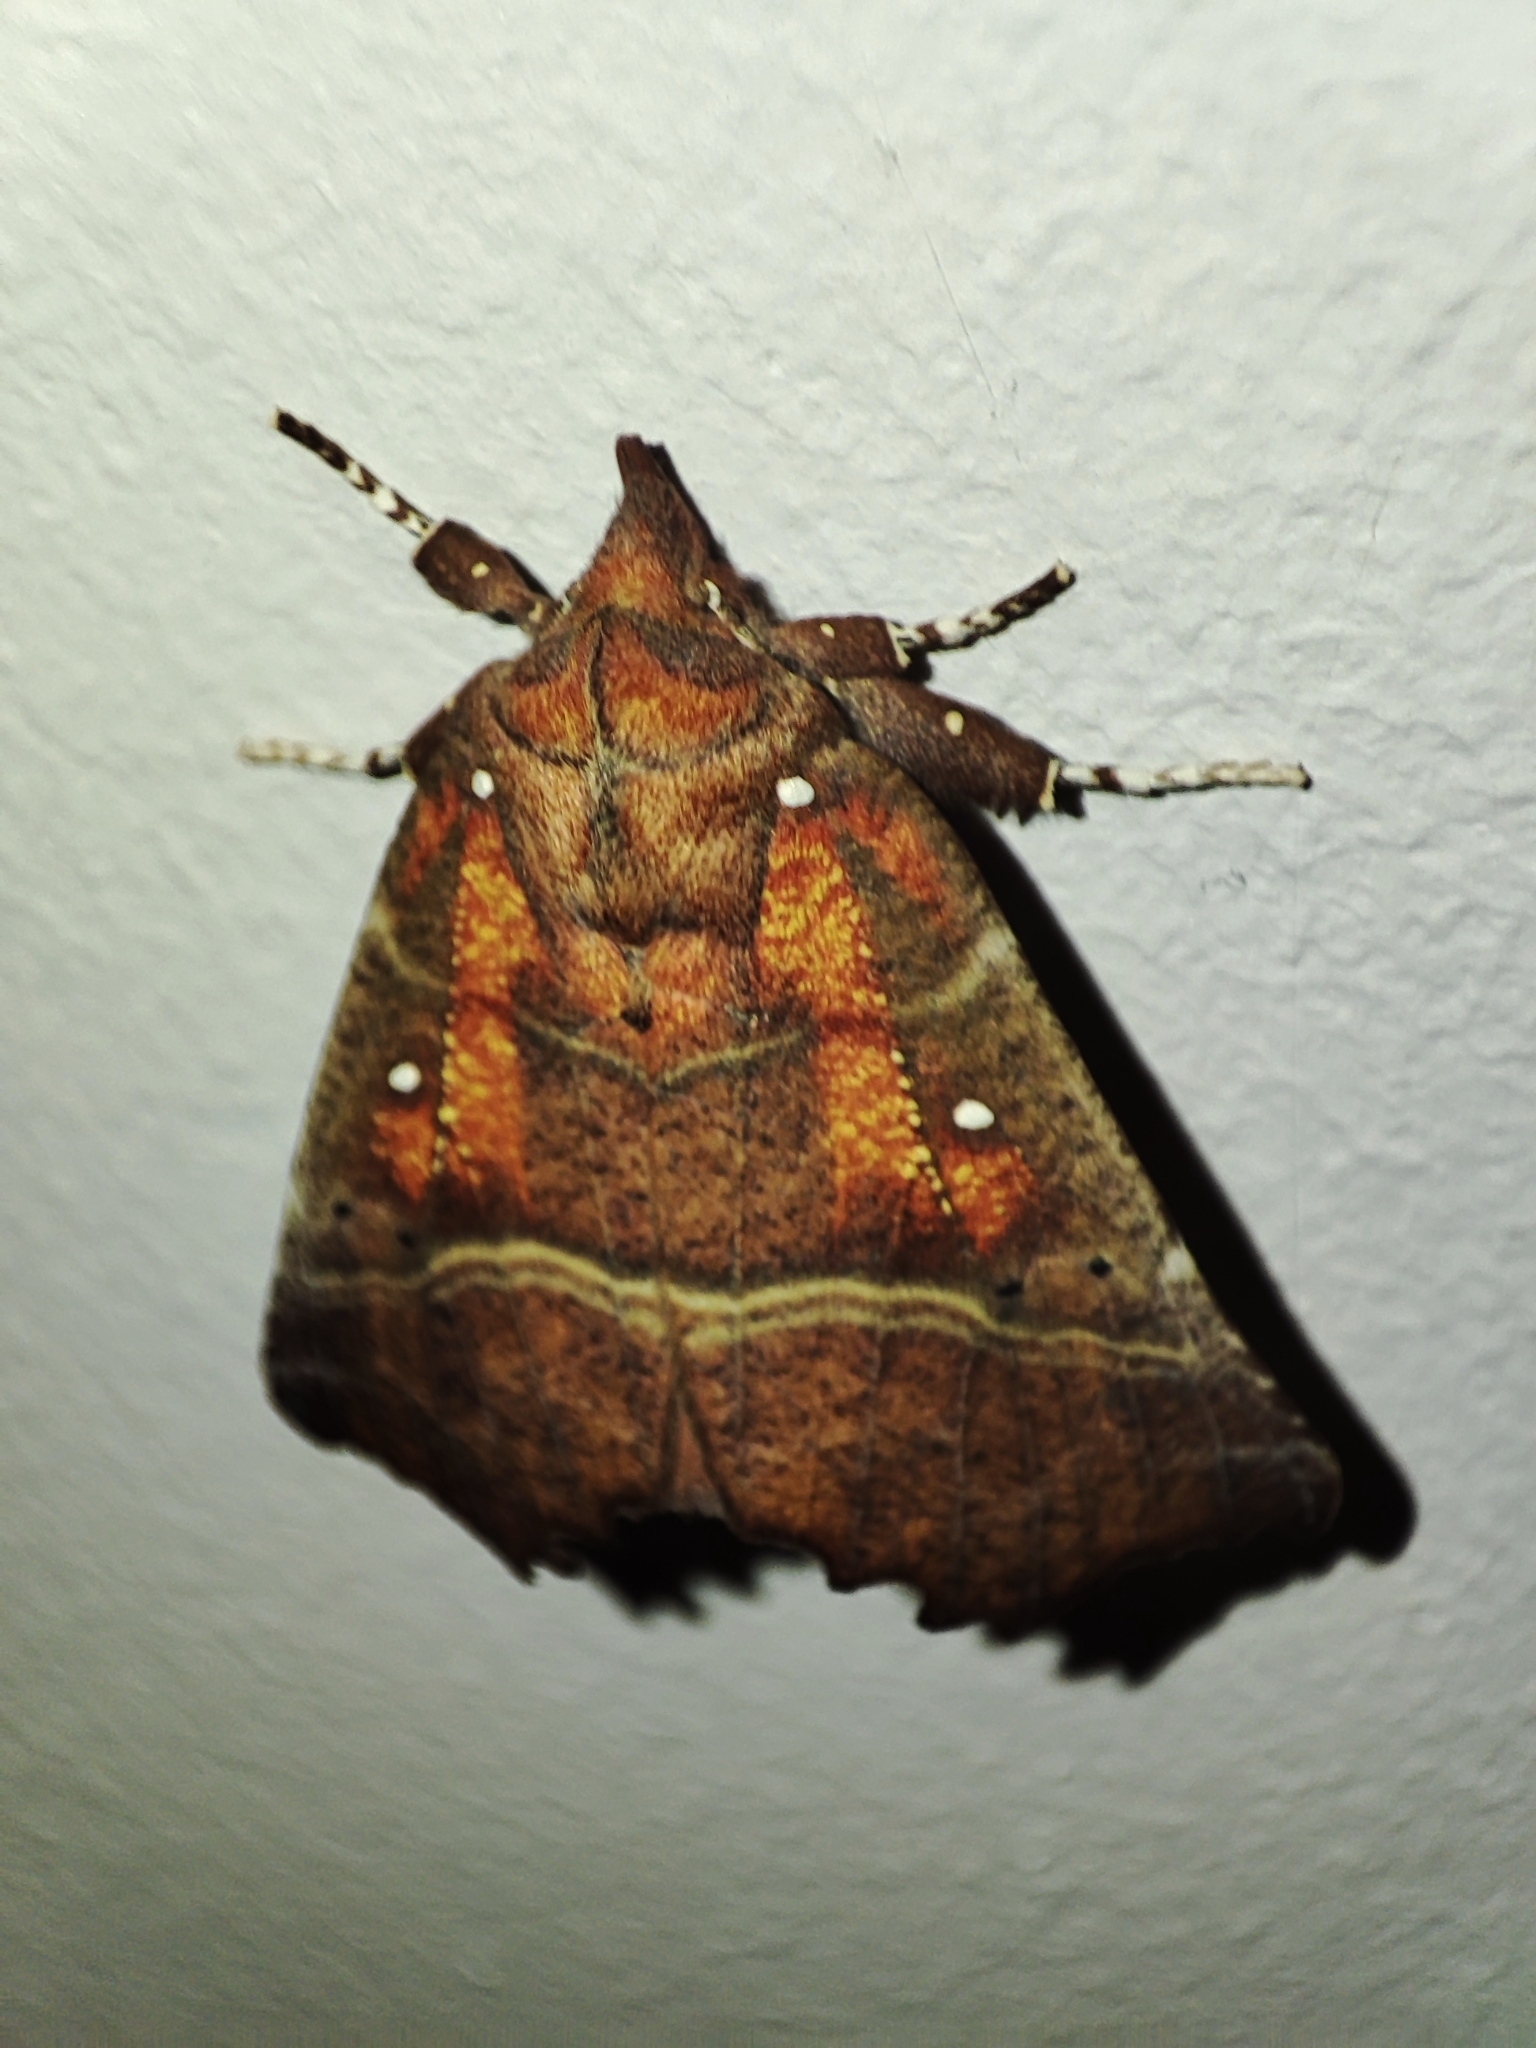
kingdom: Animalia
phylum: Arthropoda
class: Insecta
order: Lepidoptera
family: Erebidae
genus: Scoliopteryx
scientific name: Scoliopteryx libatrix
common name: Herald
